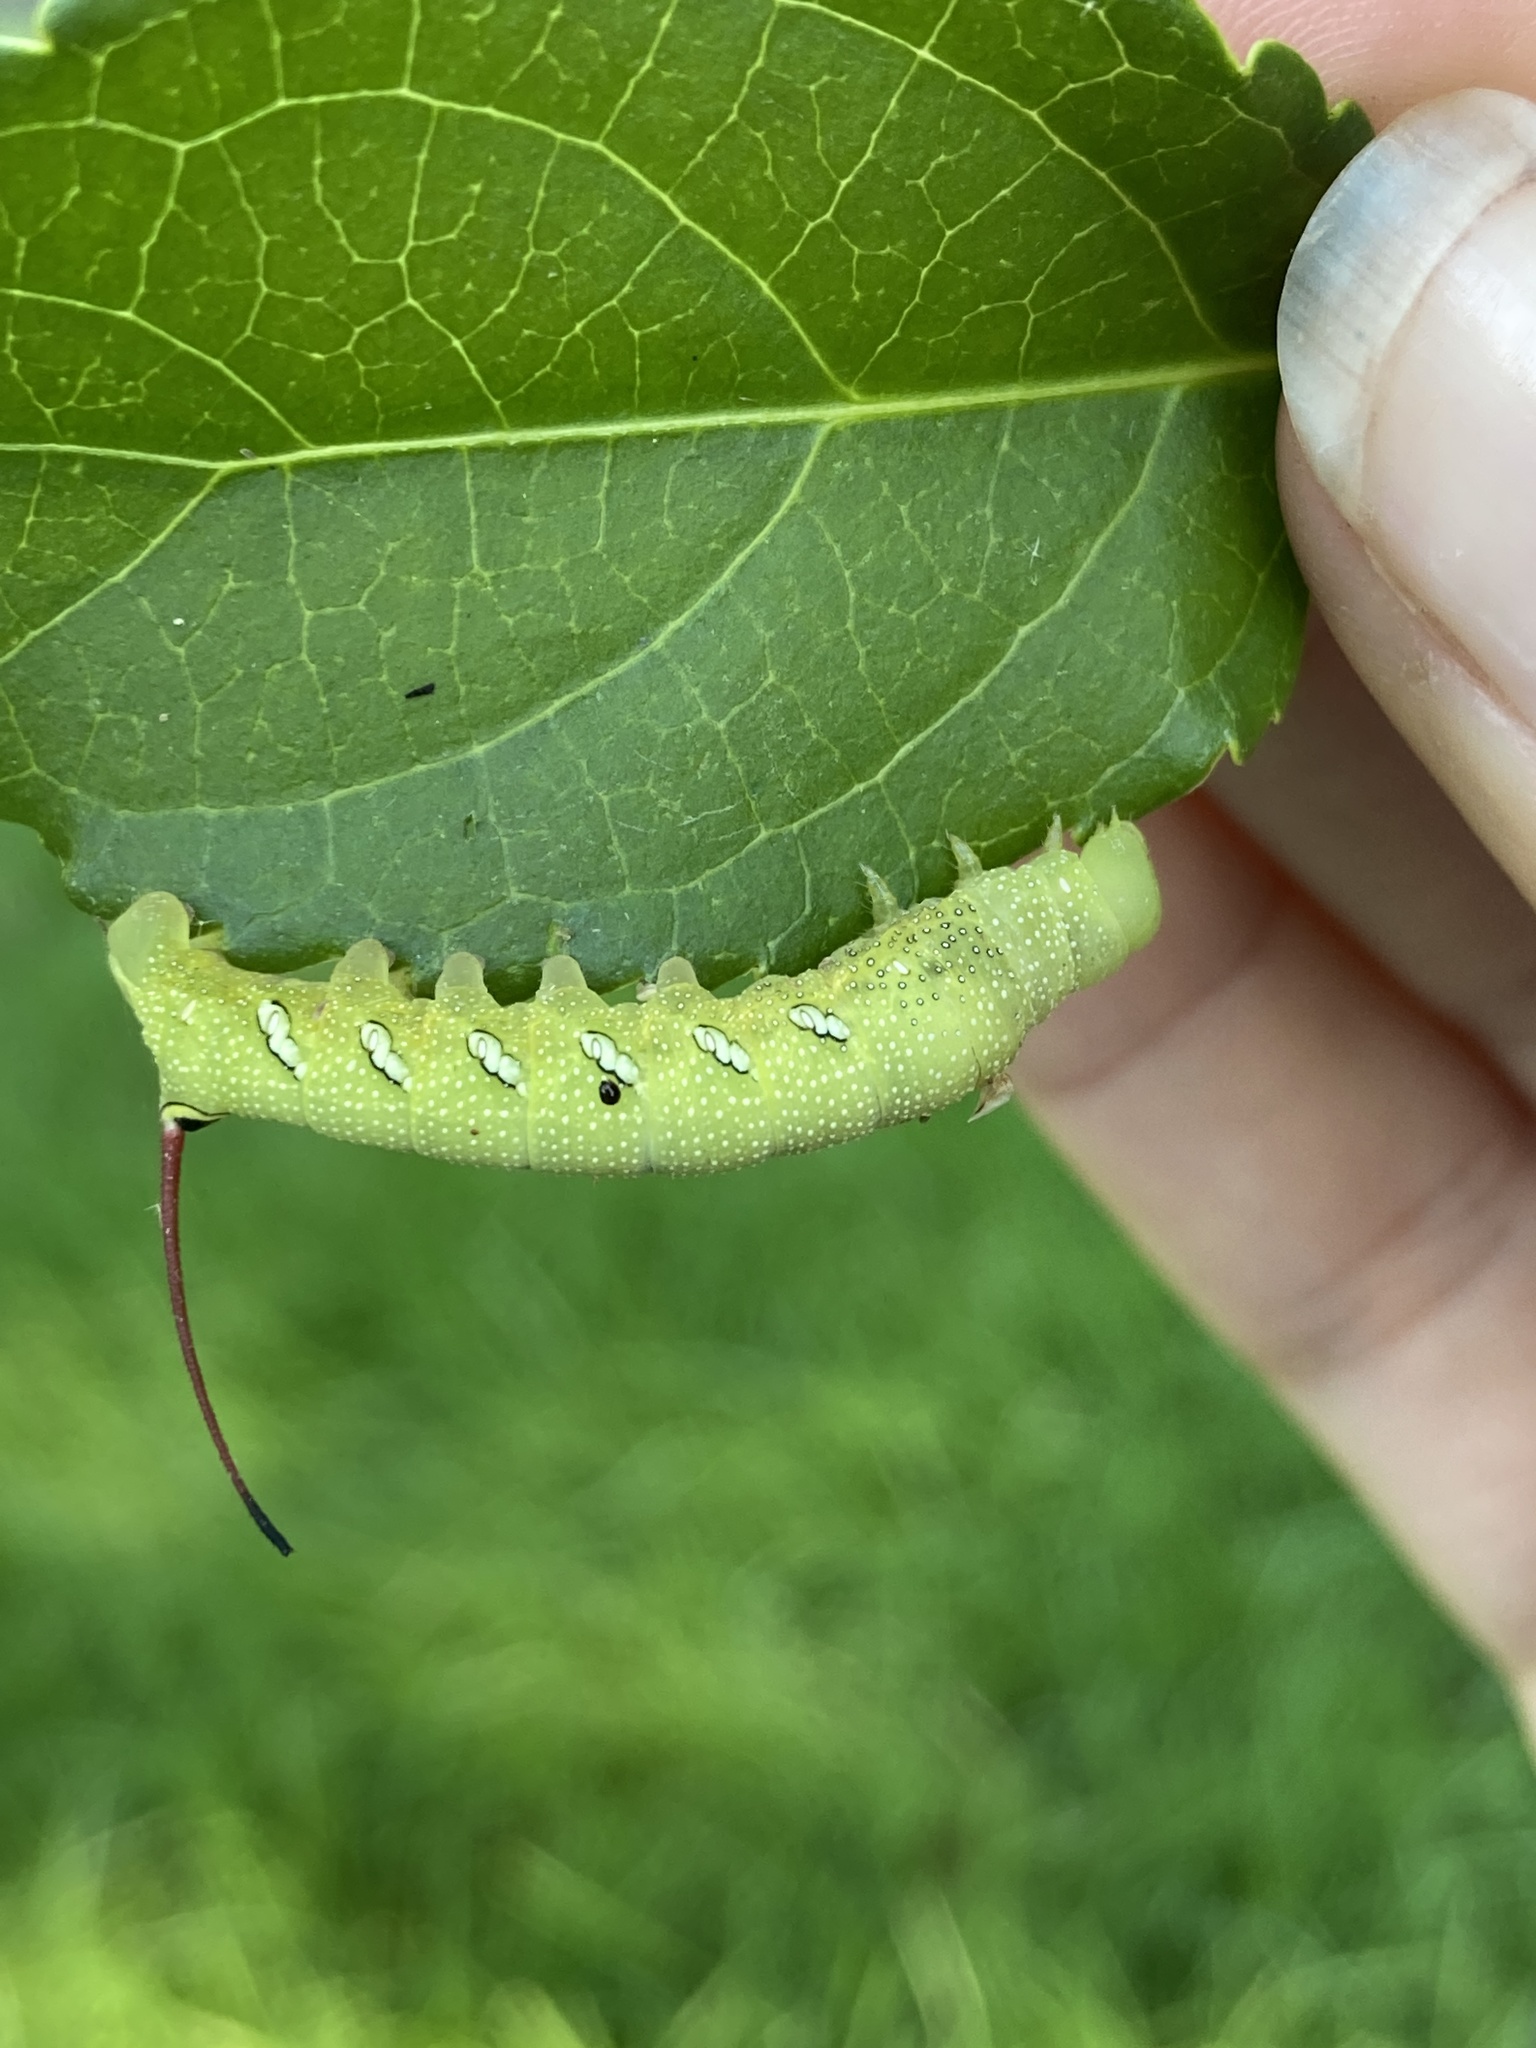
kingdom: Animalia
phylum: Arthropoda
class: Insecta
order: Lepidoptera
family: Sphingidae
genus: Eumorpha
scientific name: Eumorpha achemon
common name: Achemon sphinx
